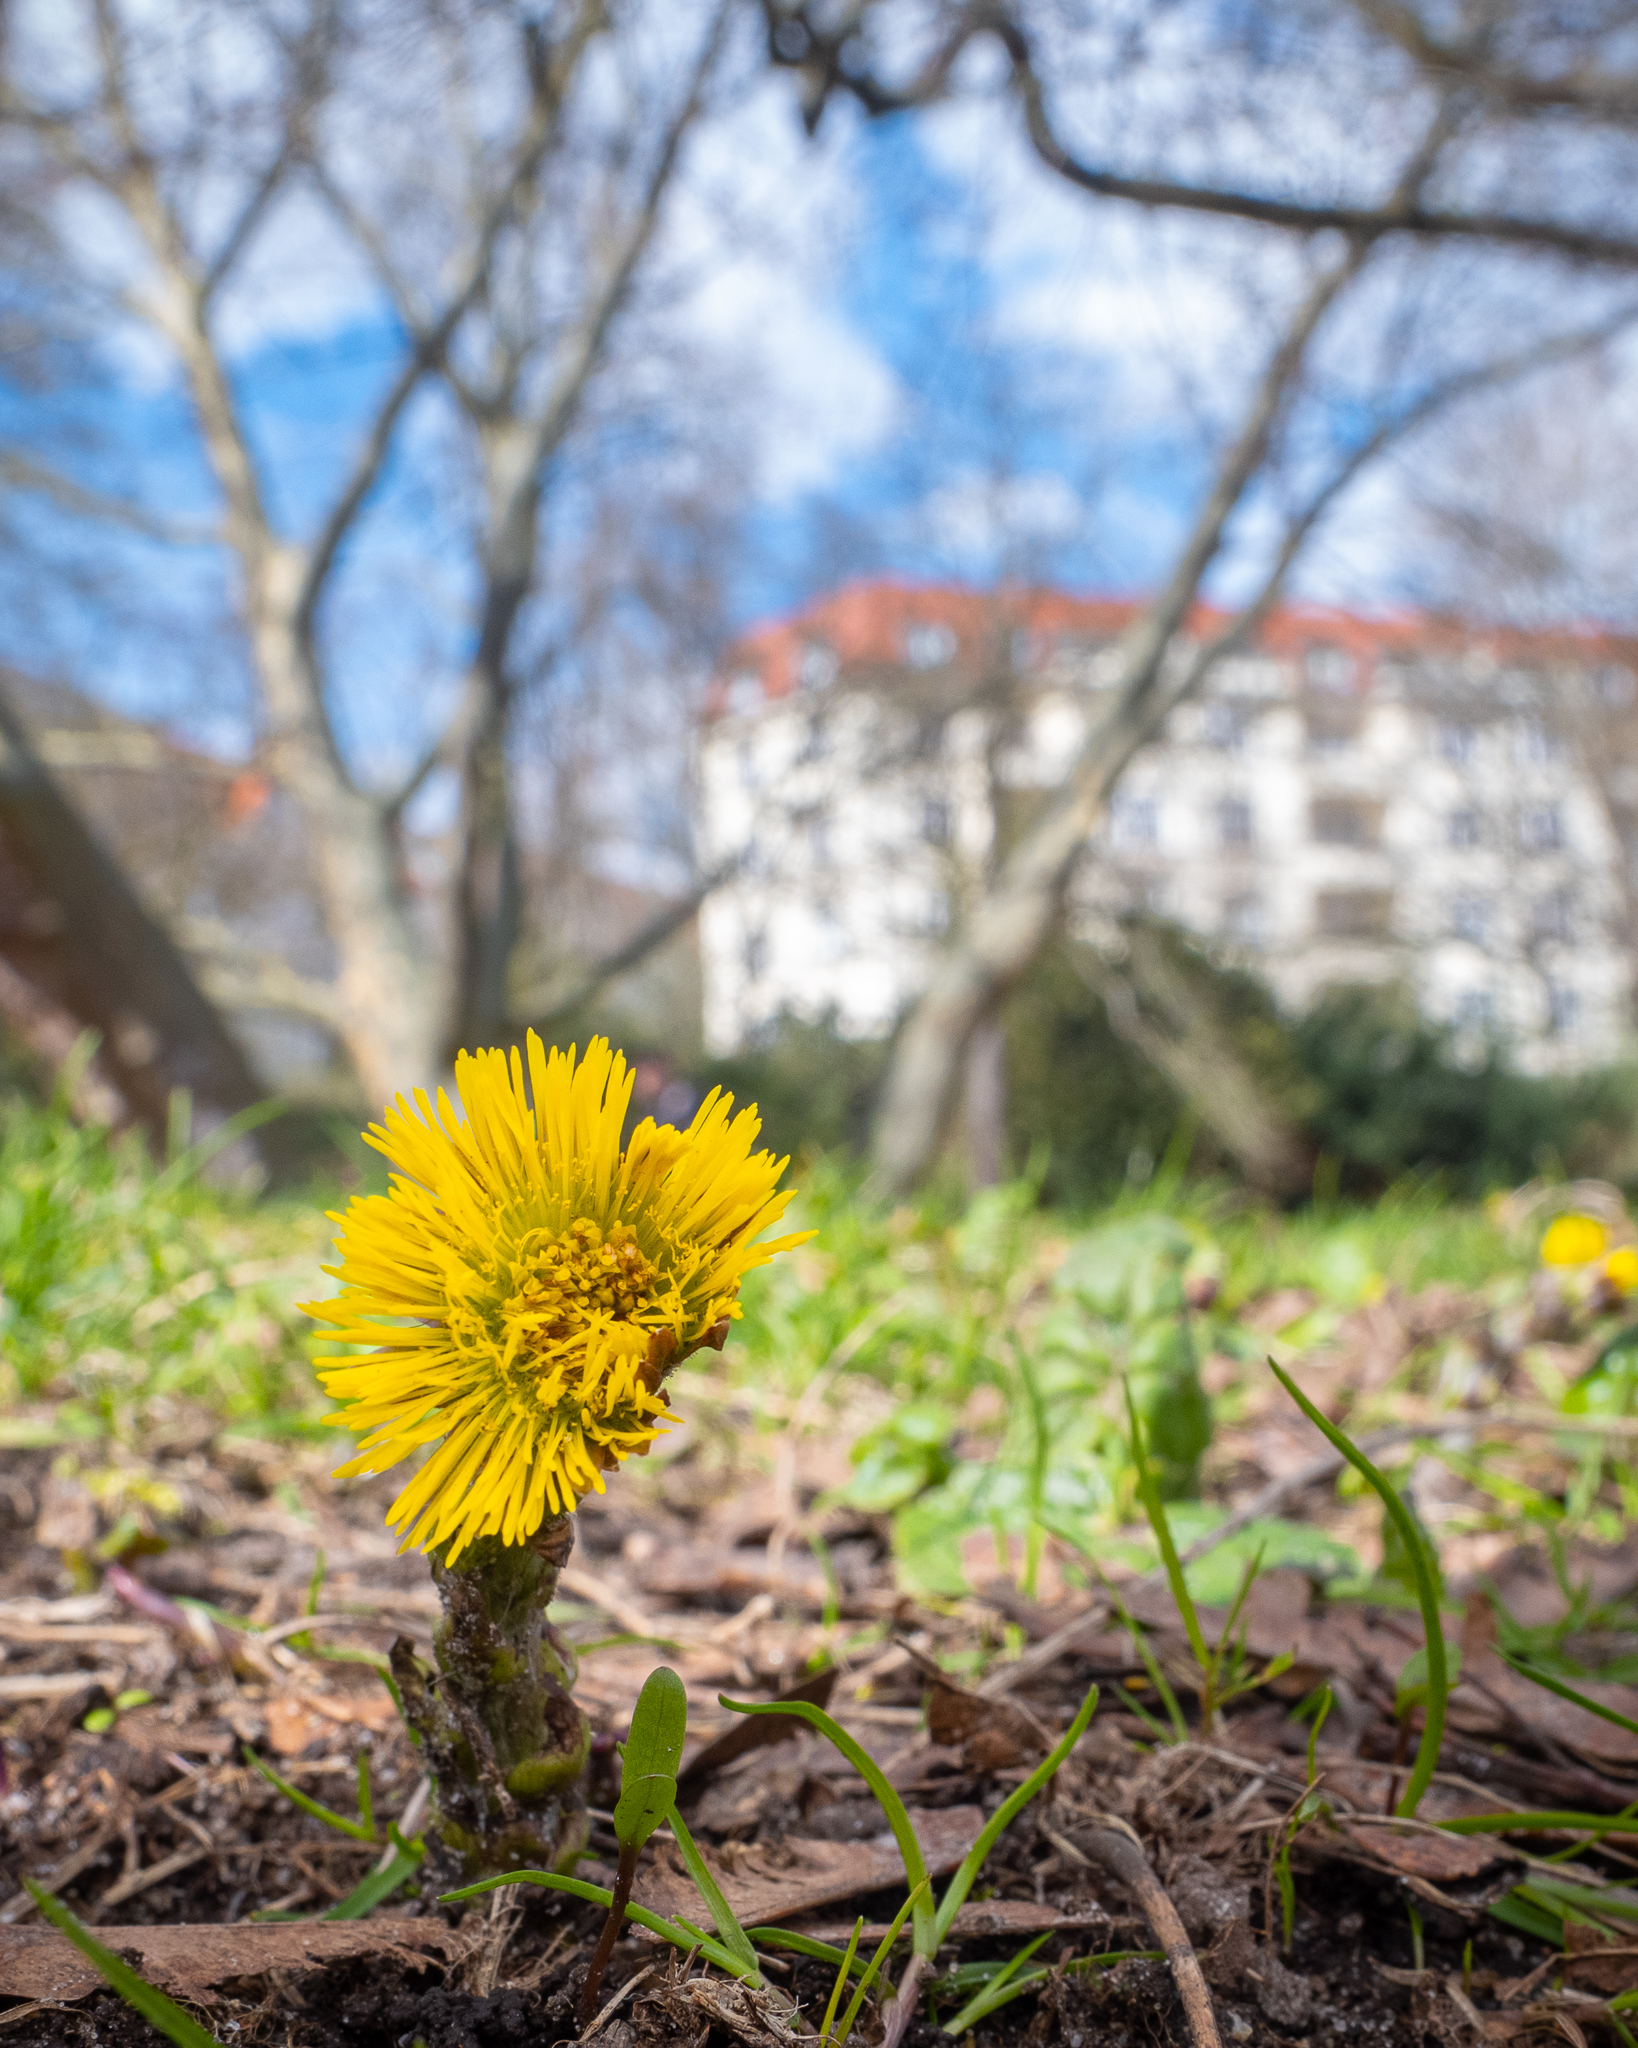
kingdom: Plantae
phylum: Tracheophyta
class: Magnoliopsida
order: Asterales
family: Asteraceae
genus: Tussilago
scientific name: Tussilago farfara
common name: Coltsfoot
